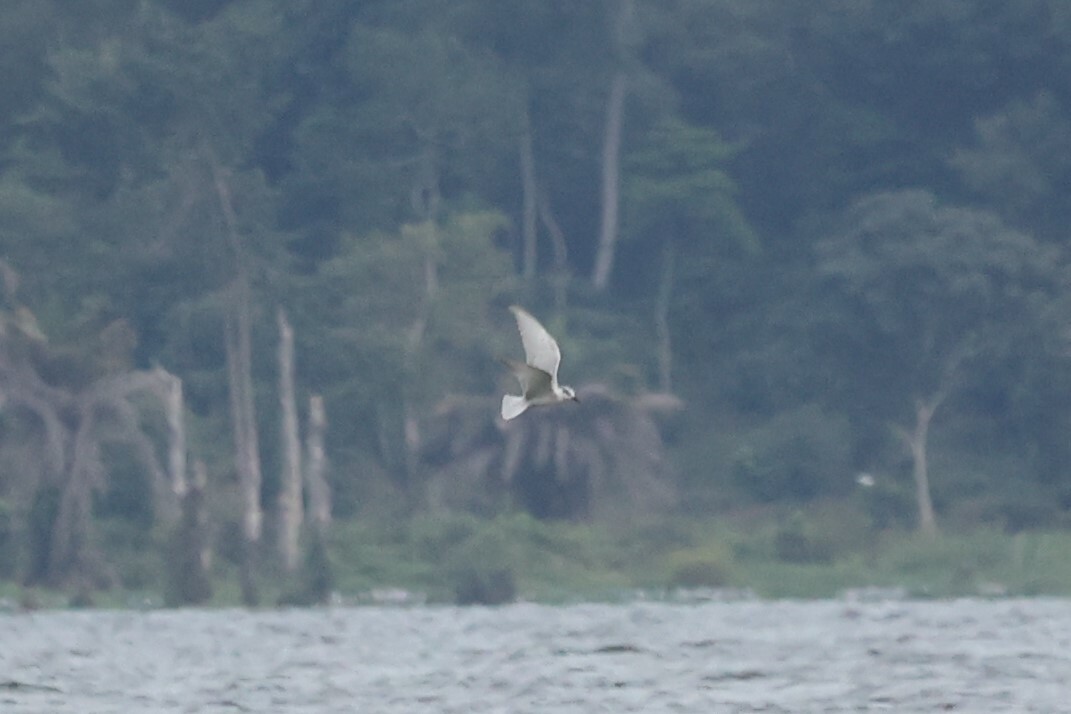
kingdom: Animalia
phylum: Chordata
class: Aves
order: Charadriiformes
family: Laridae
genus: Chlidonias
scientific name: Chlidonias hybrida
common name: Whiskered tern
